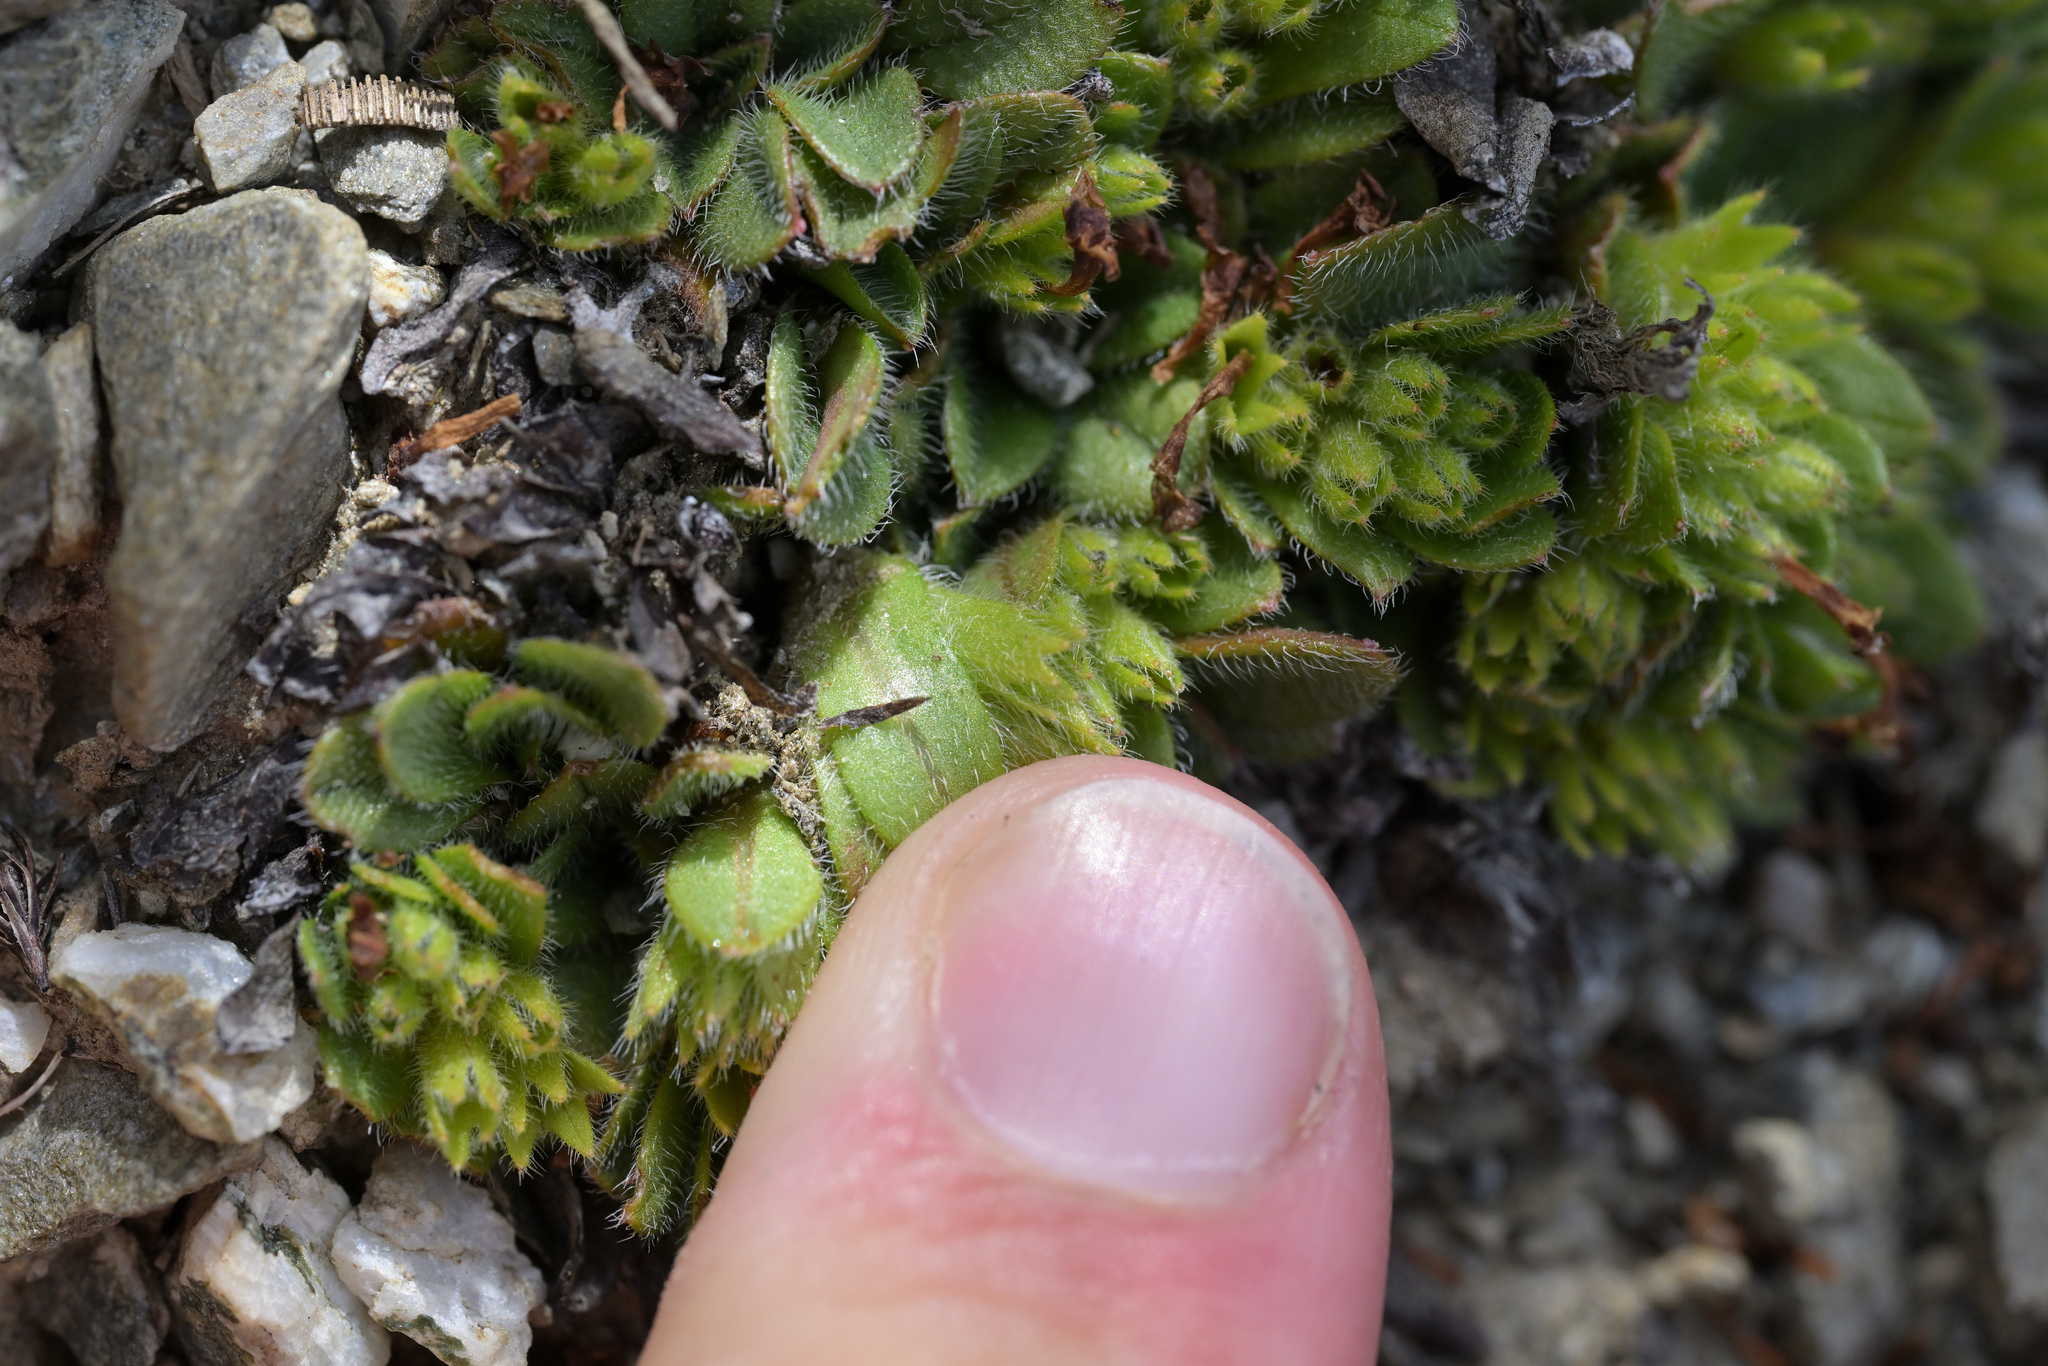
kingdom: Plantae
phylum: Tracheophyta
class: Magnoliopsida
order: Boraginales
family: Boraginaceae
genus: Myosotis
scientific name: Myosotis lyallii
